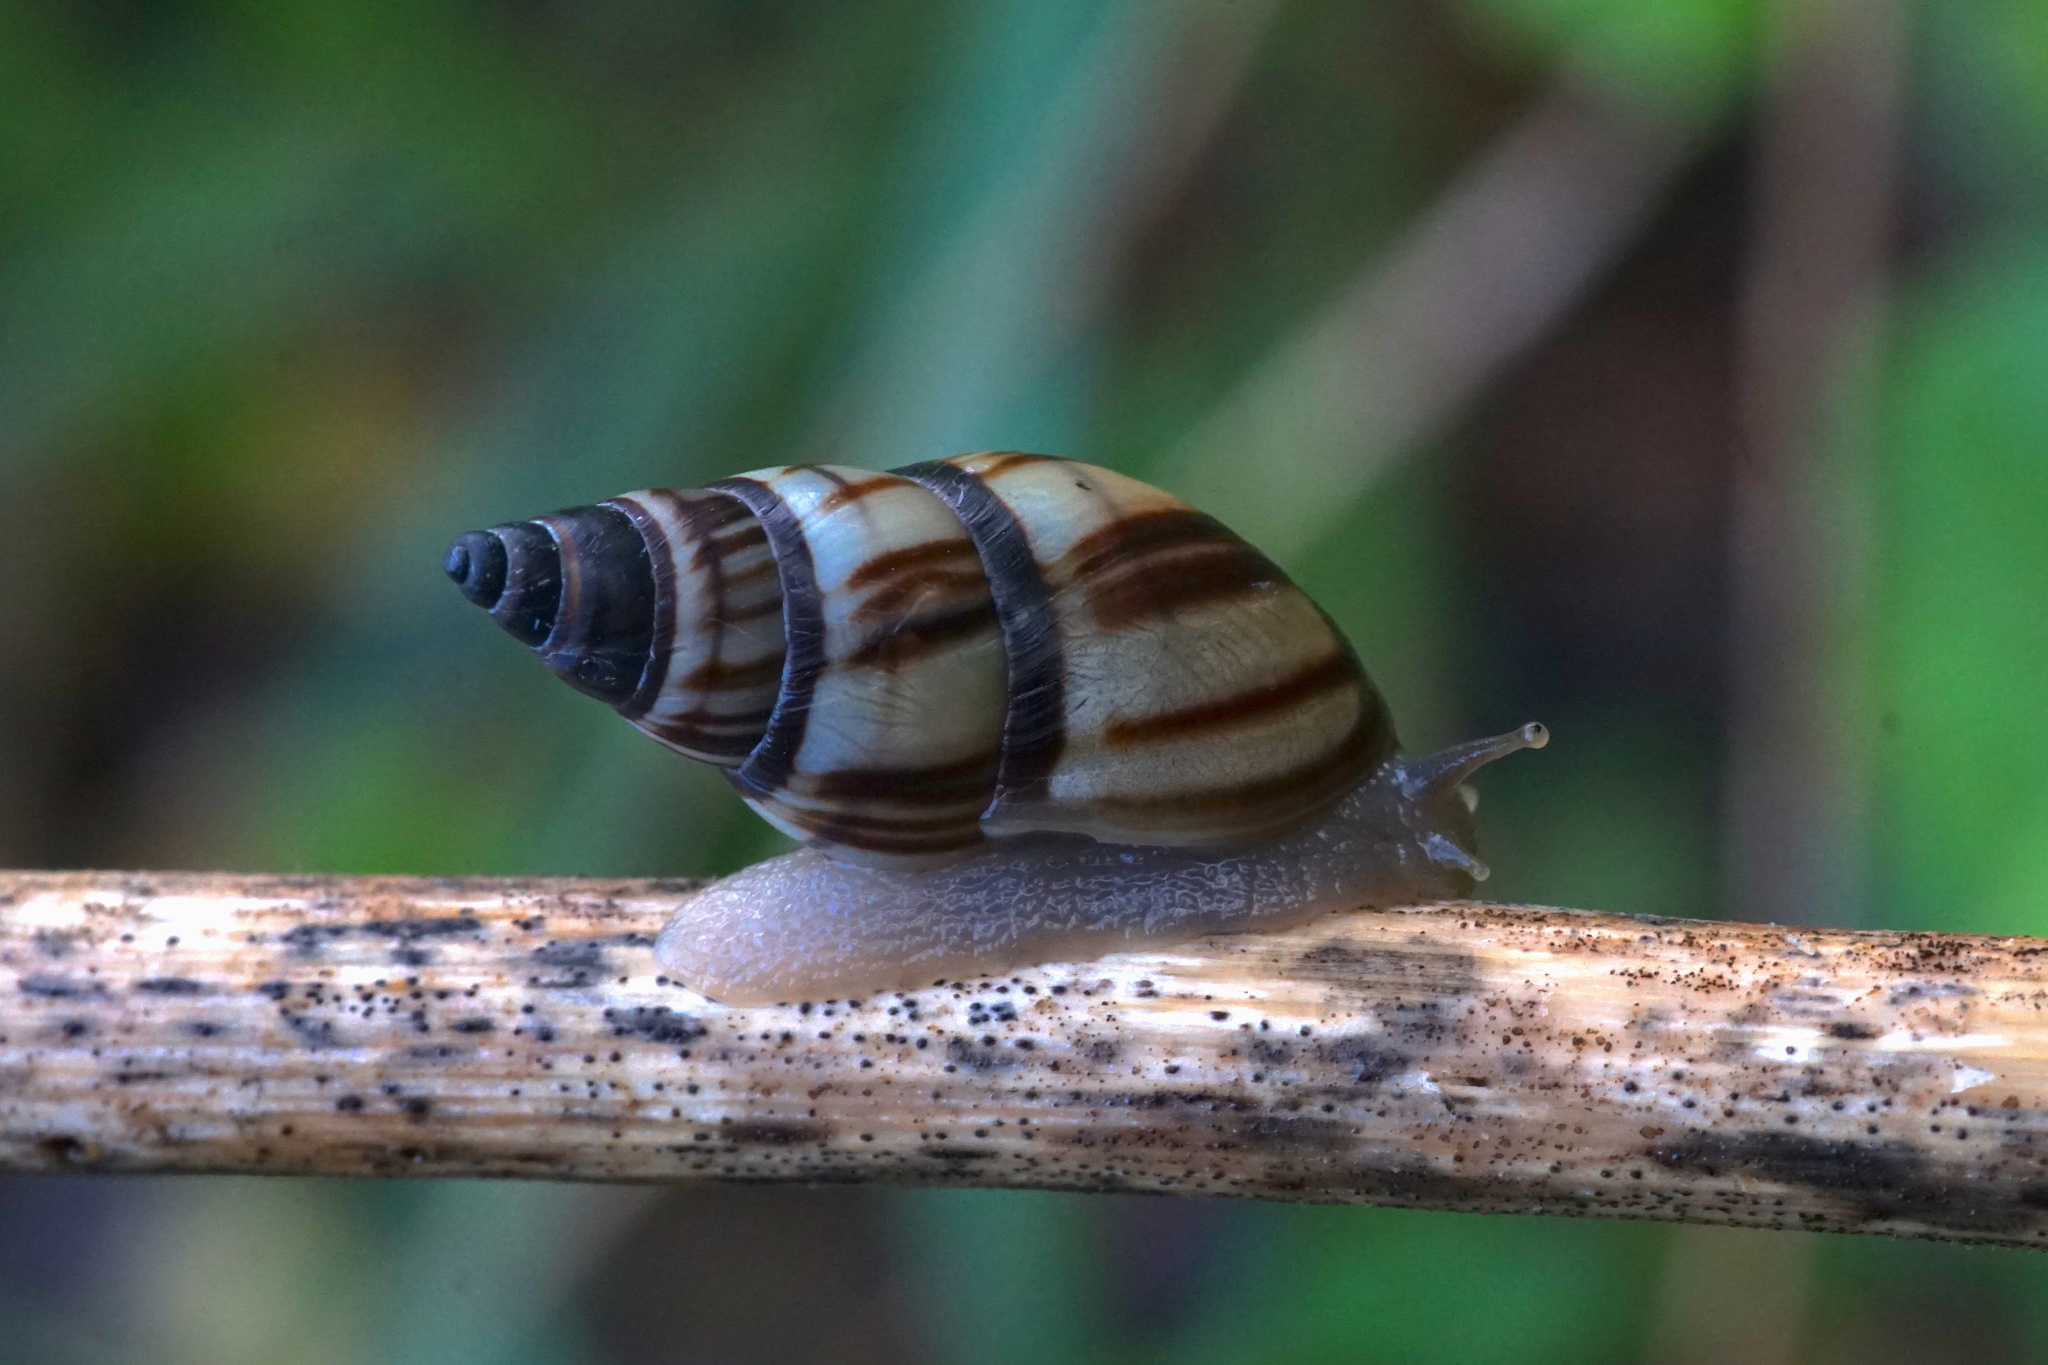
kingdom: Animalia
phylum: Mollusca
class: Gastropoda
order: Stylommatophora
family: Bulimulidae
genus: Drymaeus
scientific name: Drymaeus
